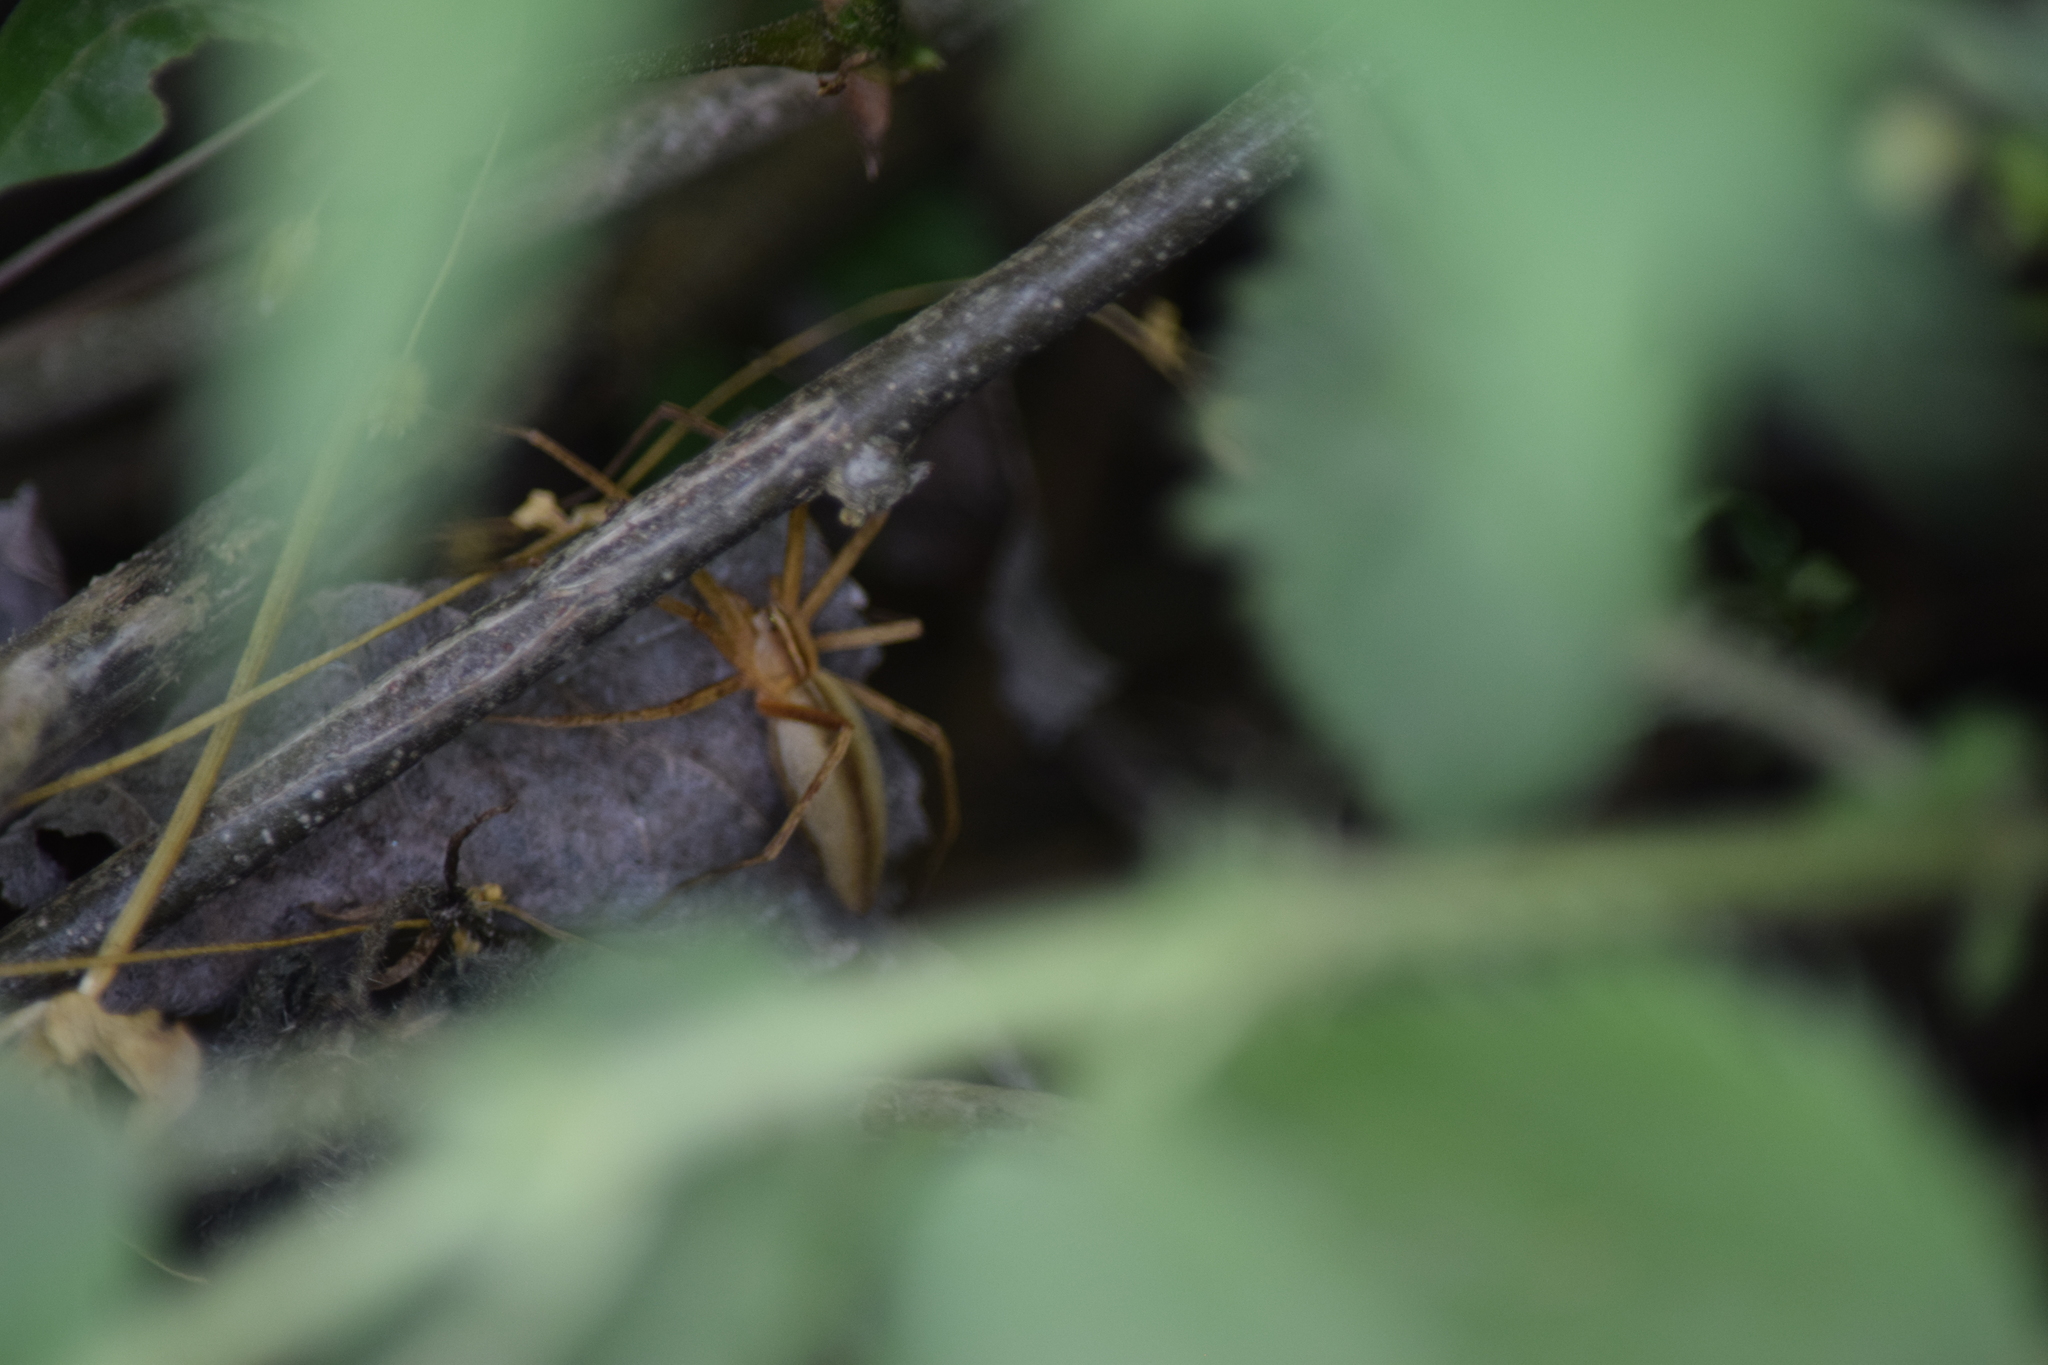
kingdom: Animalia
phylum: Arthropoda
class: Arachnida
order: Araneae
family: Pisauridae
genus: Pisaurina
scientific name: Pisaurina dubia
